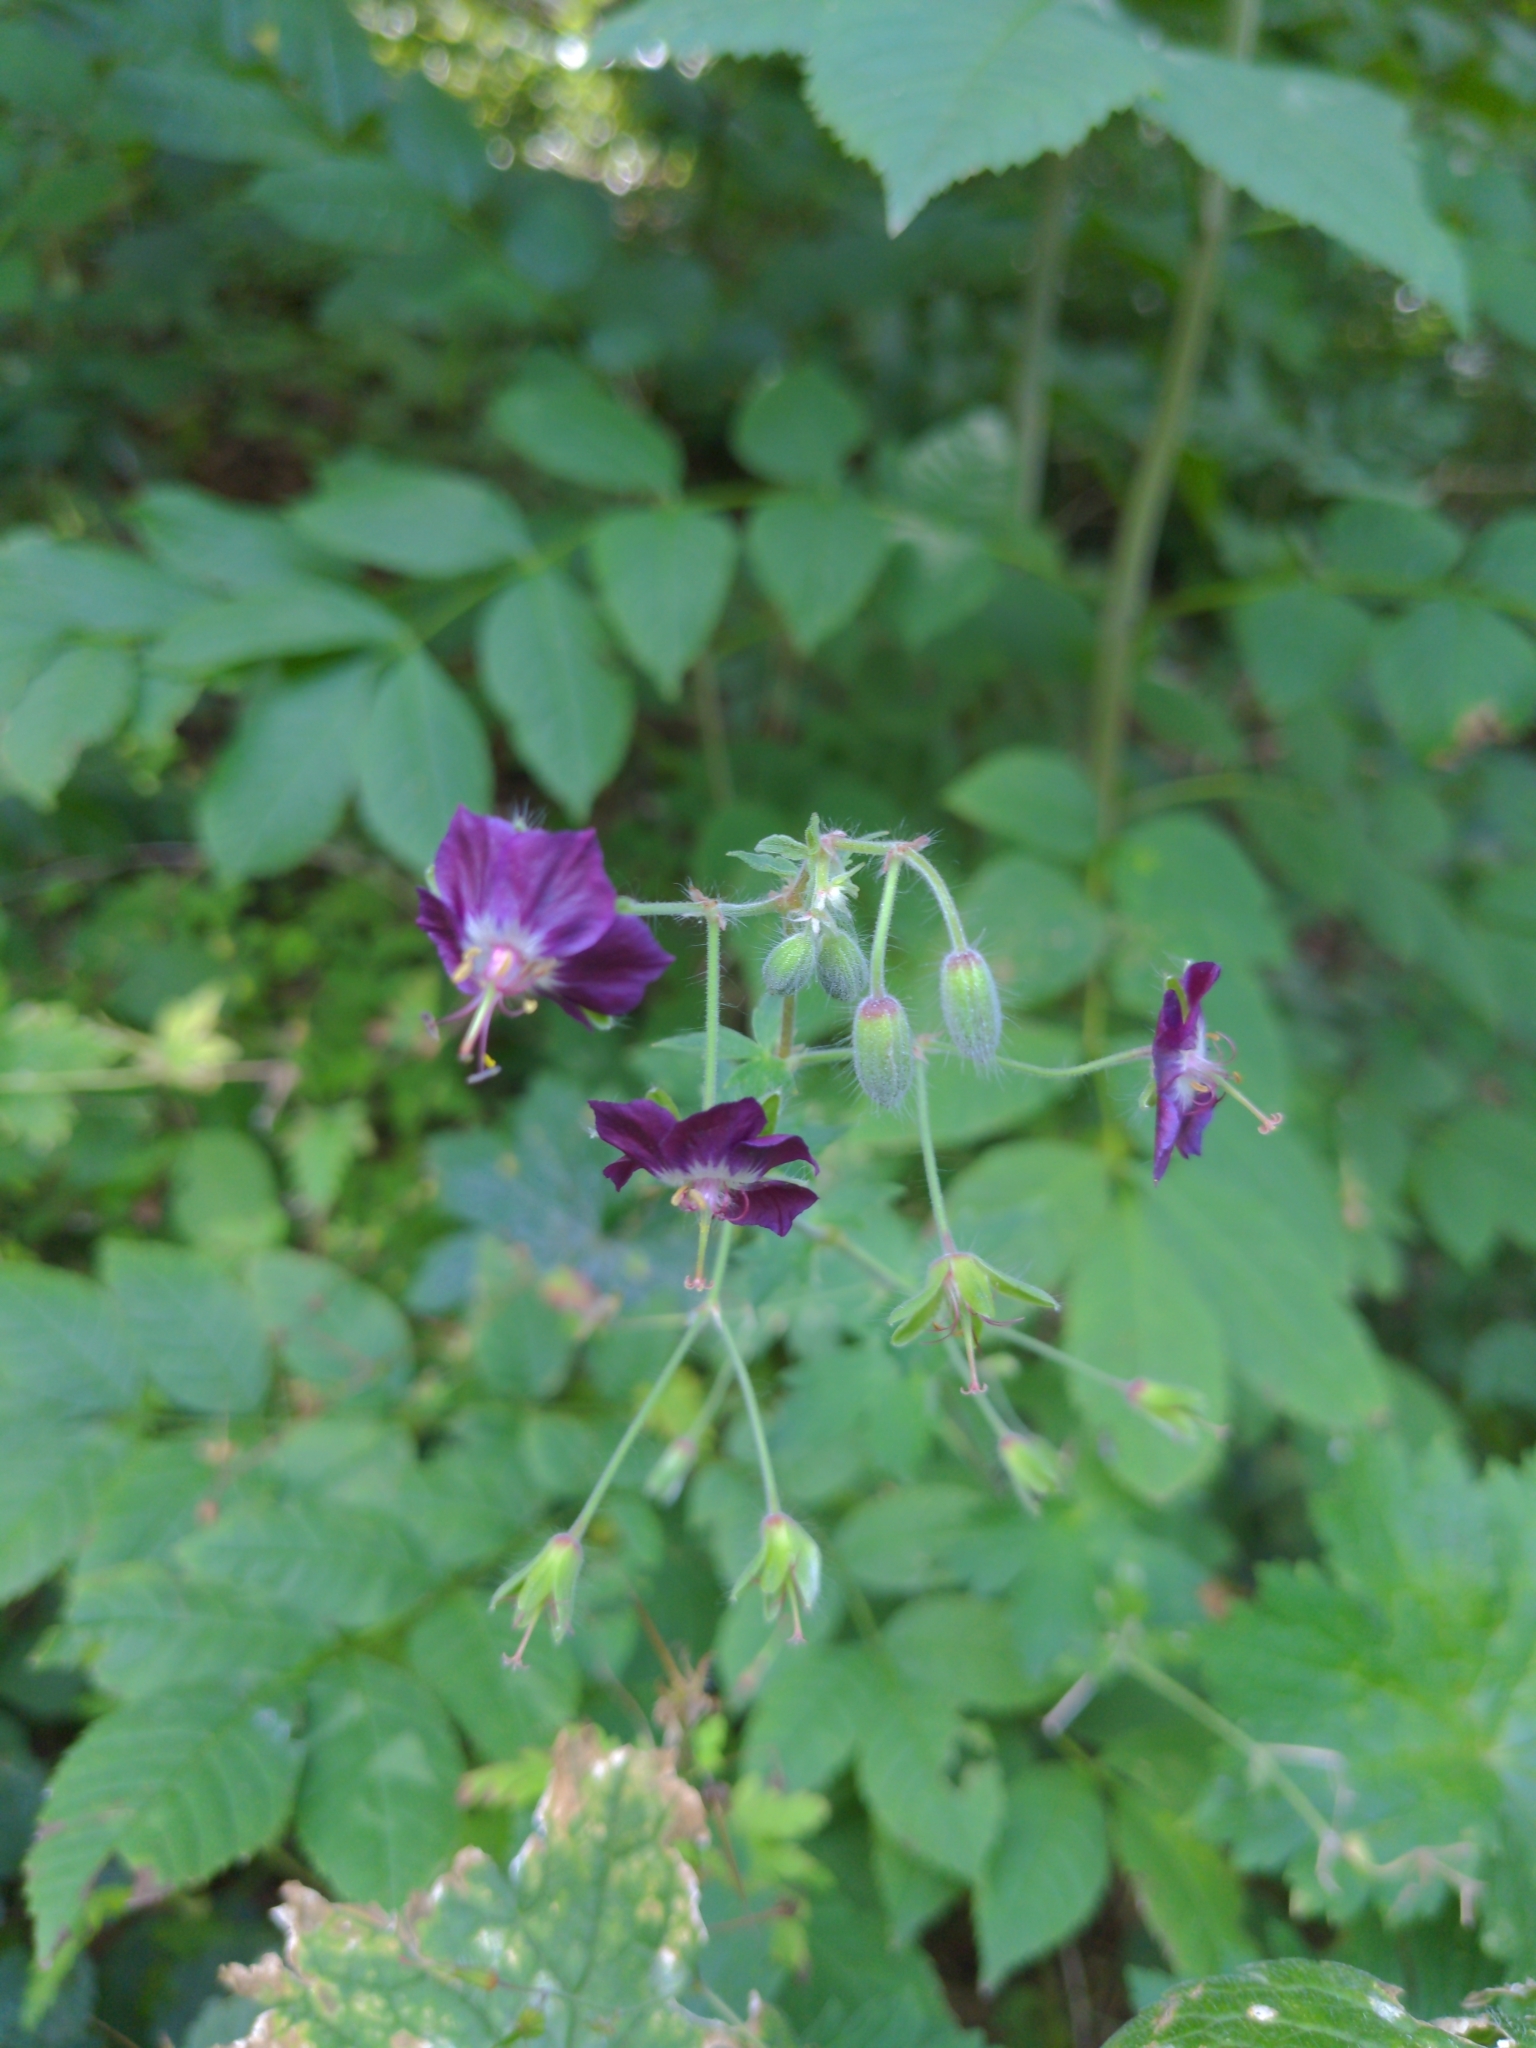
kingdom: Plantae
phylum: Tracheophyta
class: Magnoliopsida
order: Geraniales
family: Geraniaceae
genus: Geranium
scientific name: Geranium phaeum
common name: Dusky crane's-bill
